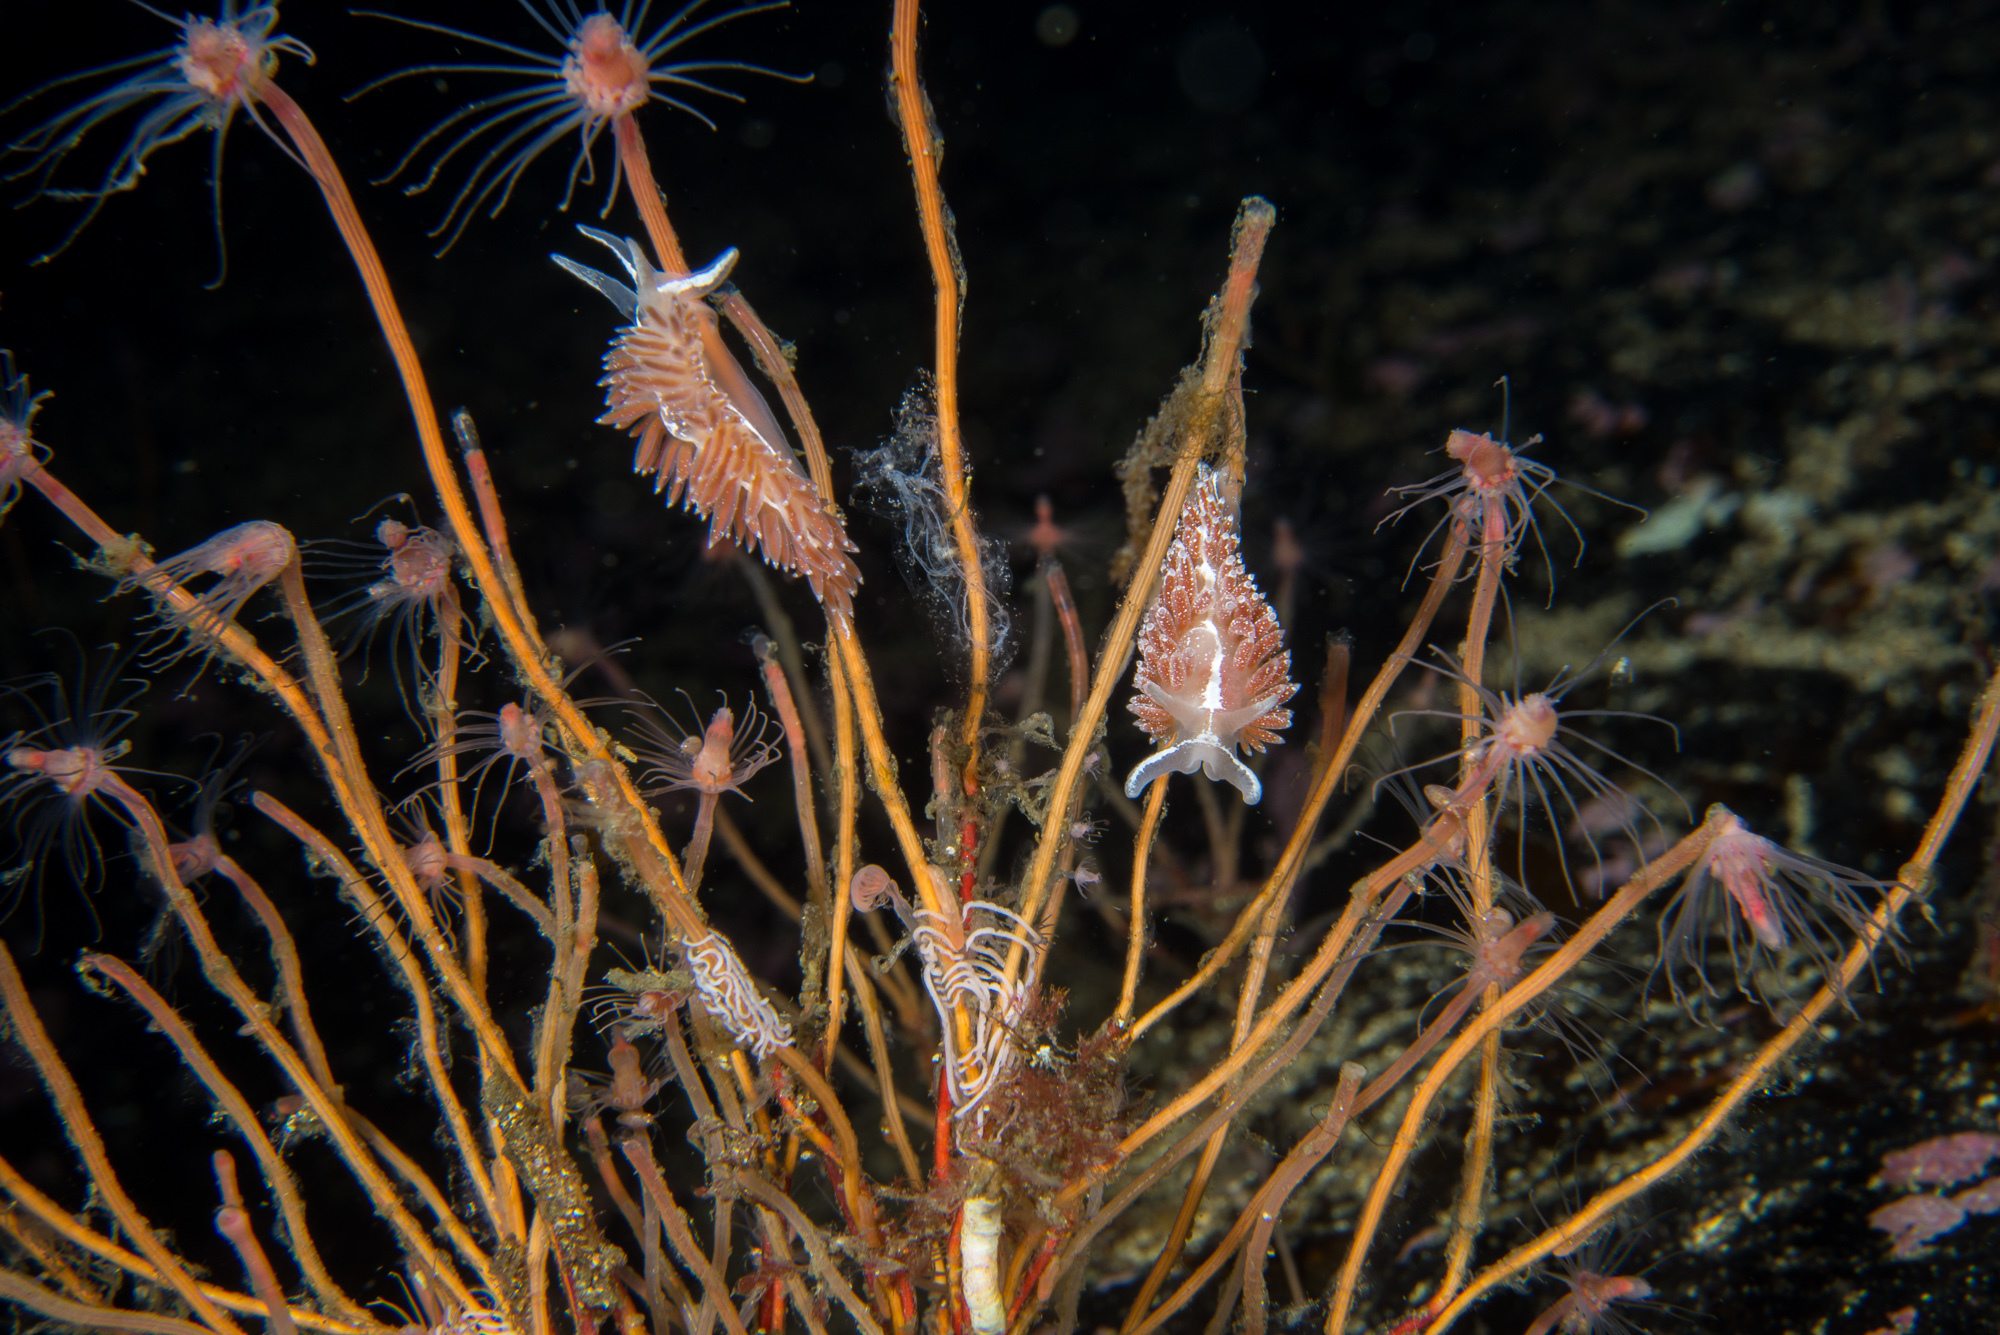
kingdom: Animalia
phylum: Mollusca
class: Gastropoda
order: Nudibranchia
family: Coryphellidae
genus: Coryphella
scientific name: Coryphella monicae
